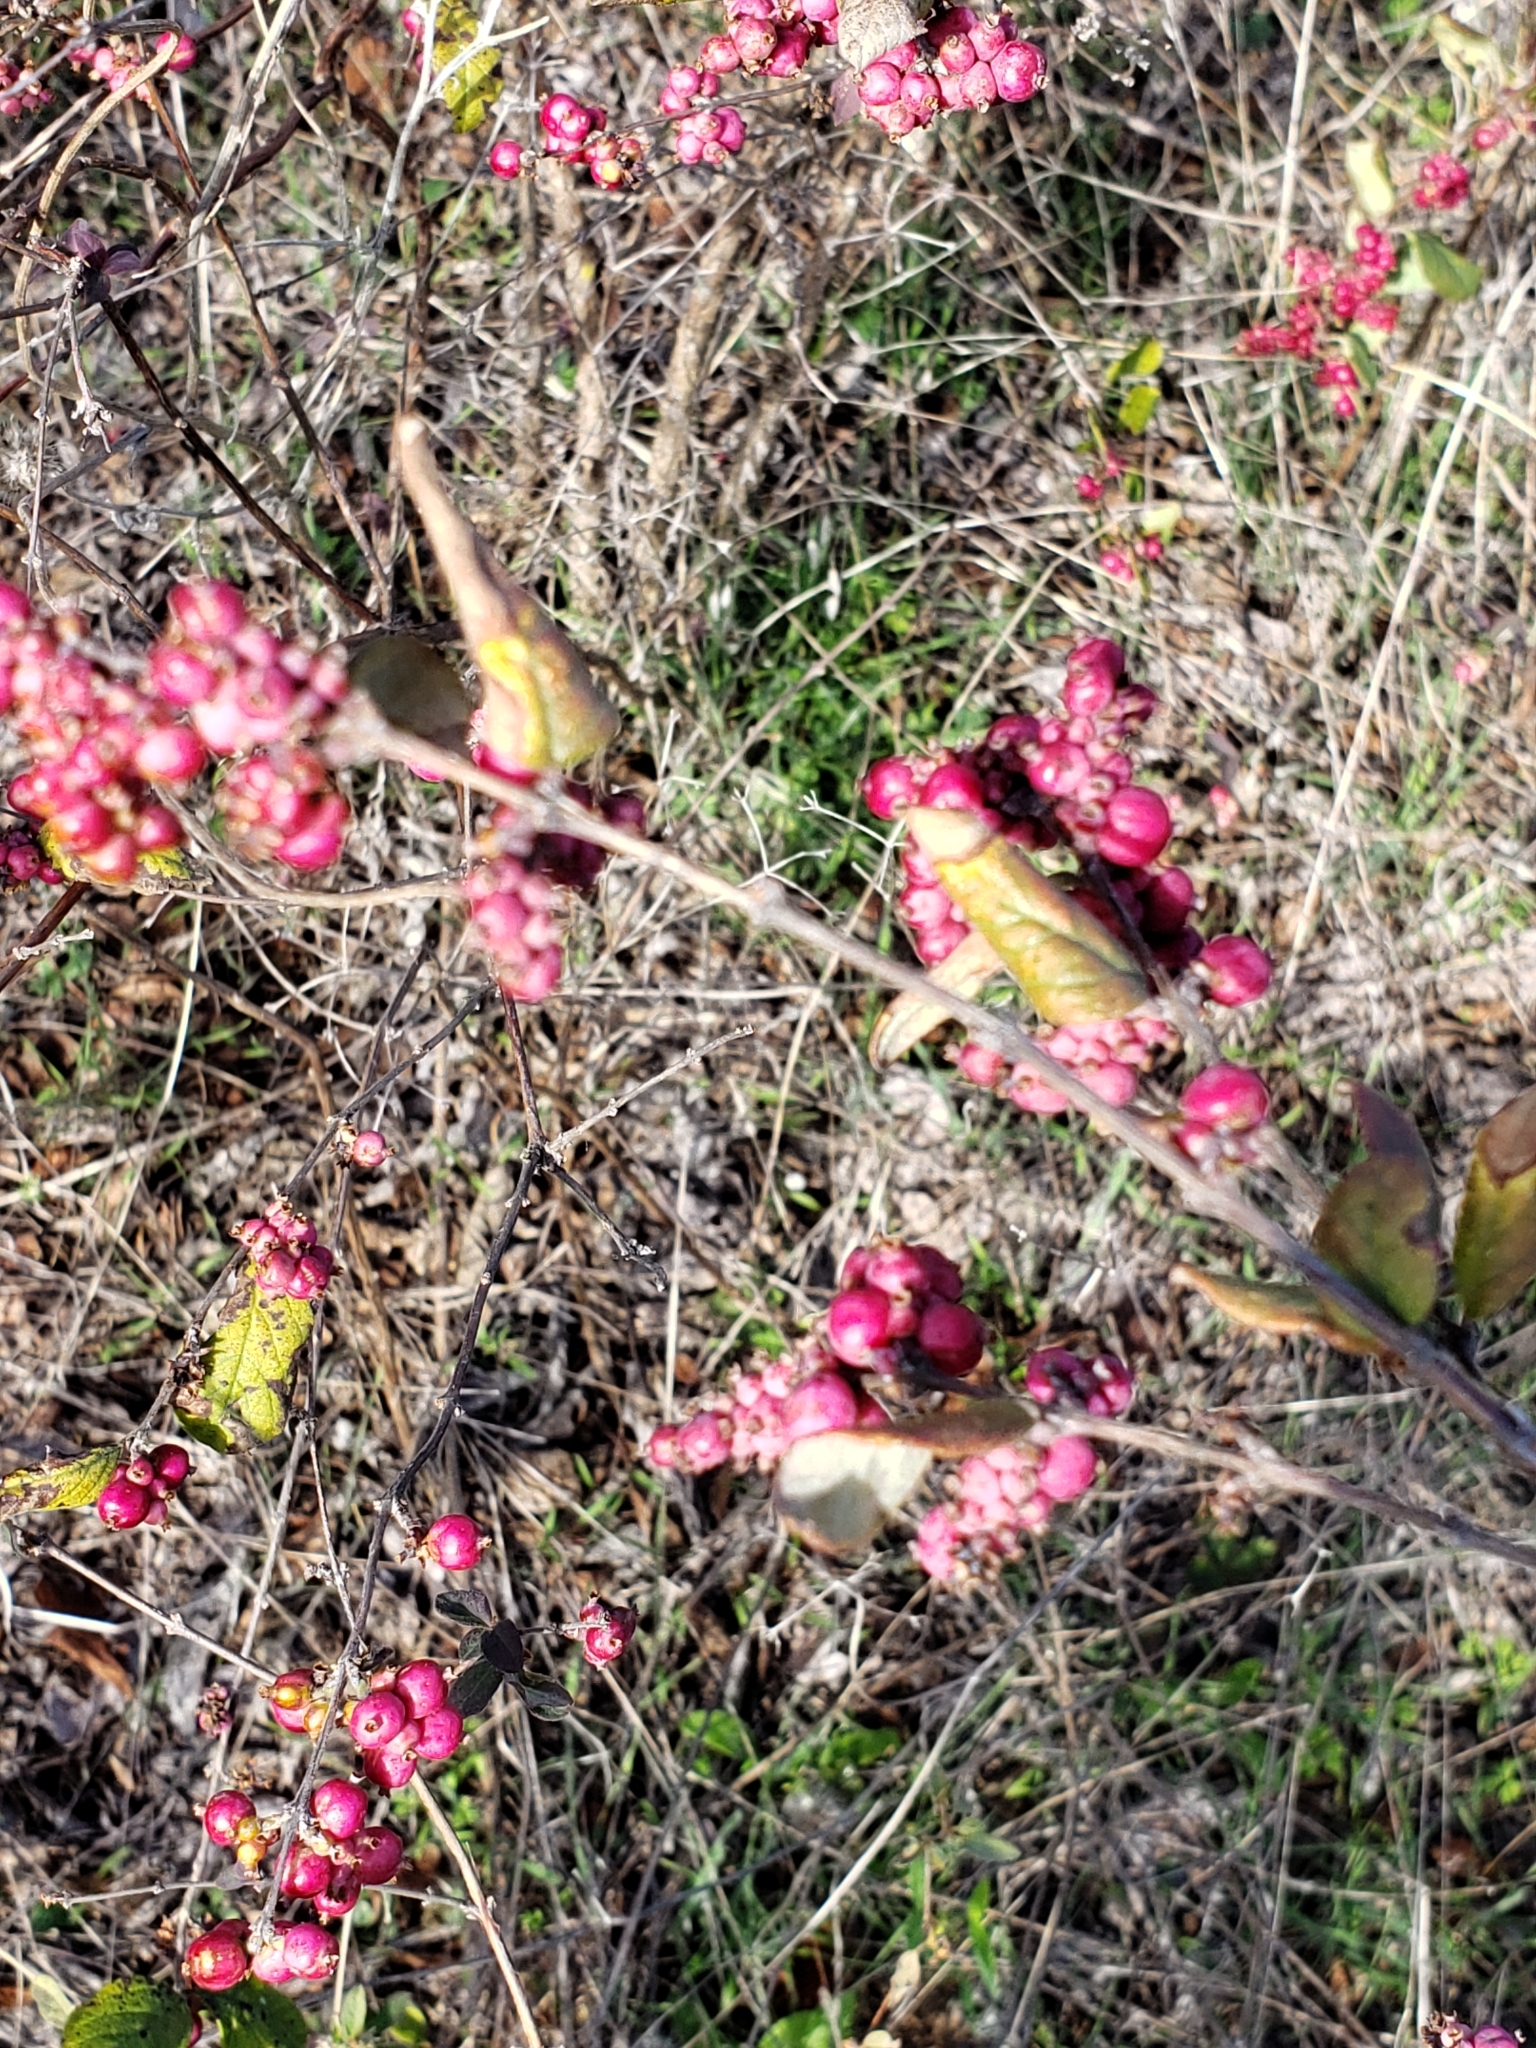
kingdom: Plantae
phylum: Tracheophyta
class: Magnoliopsida
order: Dipsacales
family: Caprifoliaceae
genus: Symphoricarpos
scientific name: Symphoricarpos orbiculatus
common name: Coralberry
